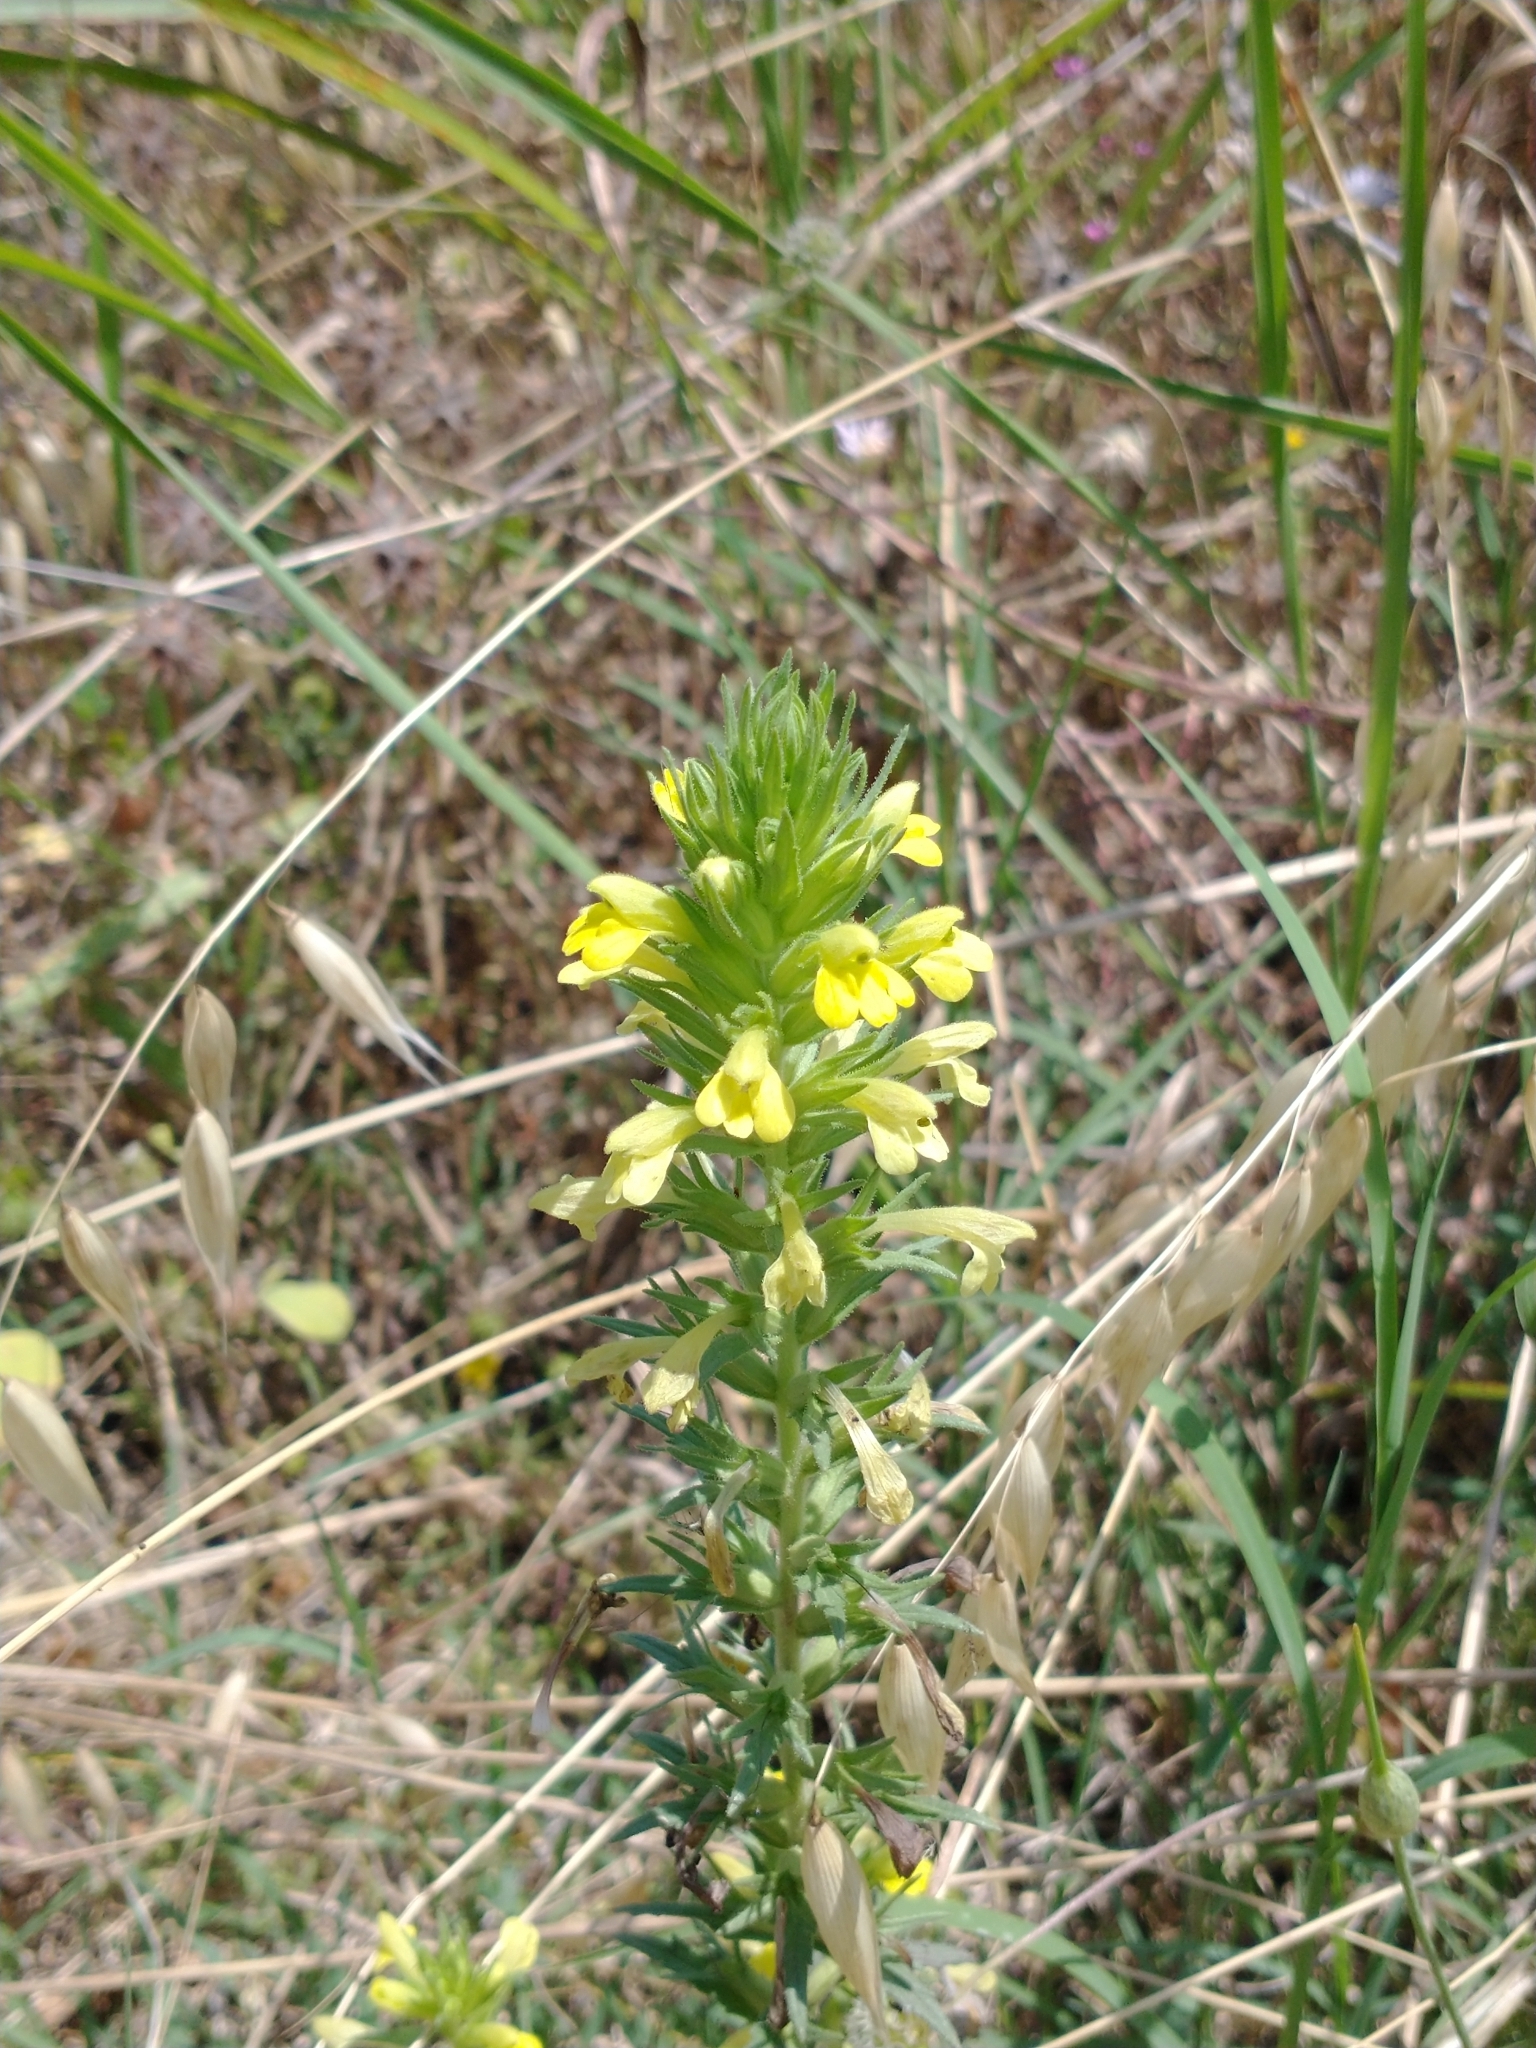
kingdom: Plantae
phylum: Tracheophyta
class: Magnoliopsida
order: Lamiales
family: Orobanchaceae
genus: Bellardia
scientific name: Bellardia viscosa
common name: Sticky parentucellia
